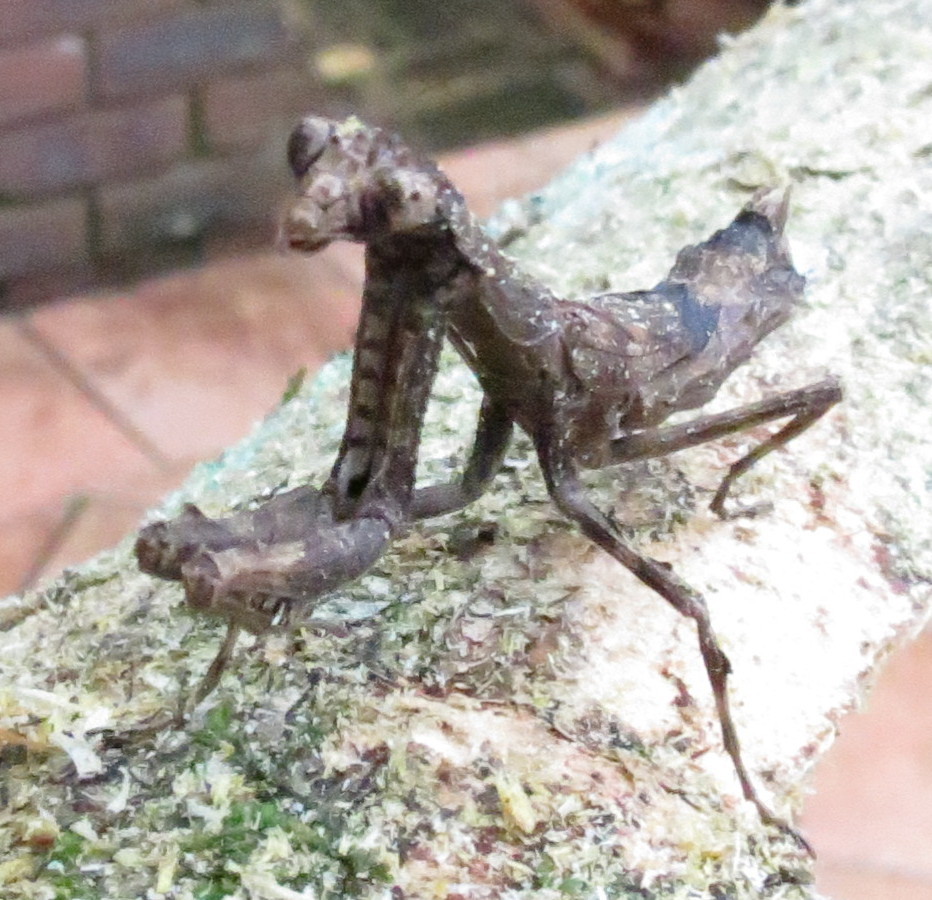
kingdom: Animalia
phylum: Arthropoda
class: Insecta
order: Mantodea
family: Deroplatyidae
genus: Popa
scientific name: Popa spurca
